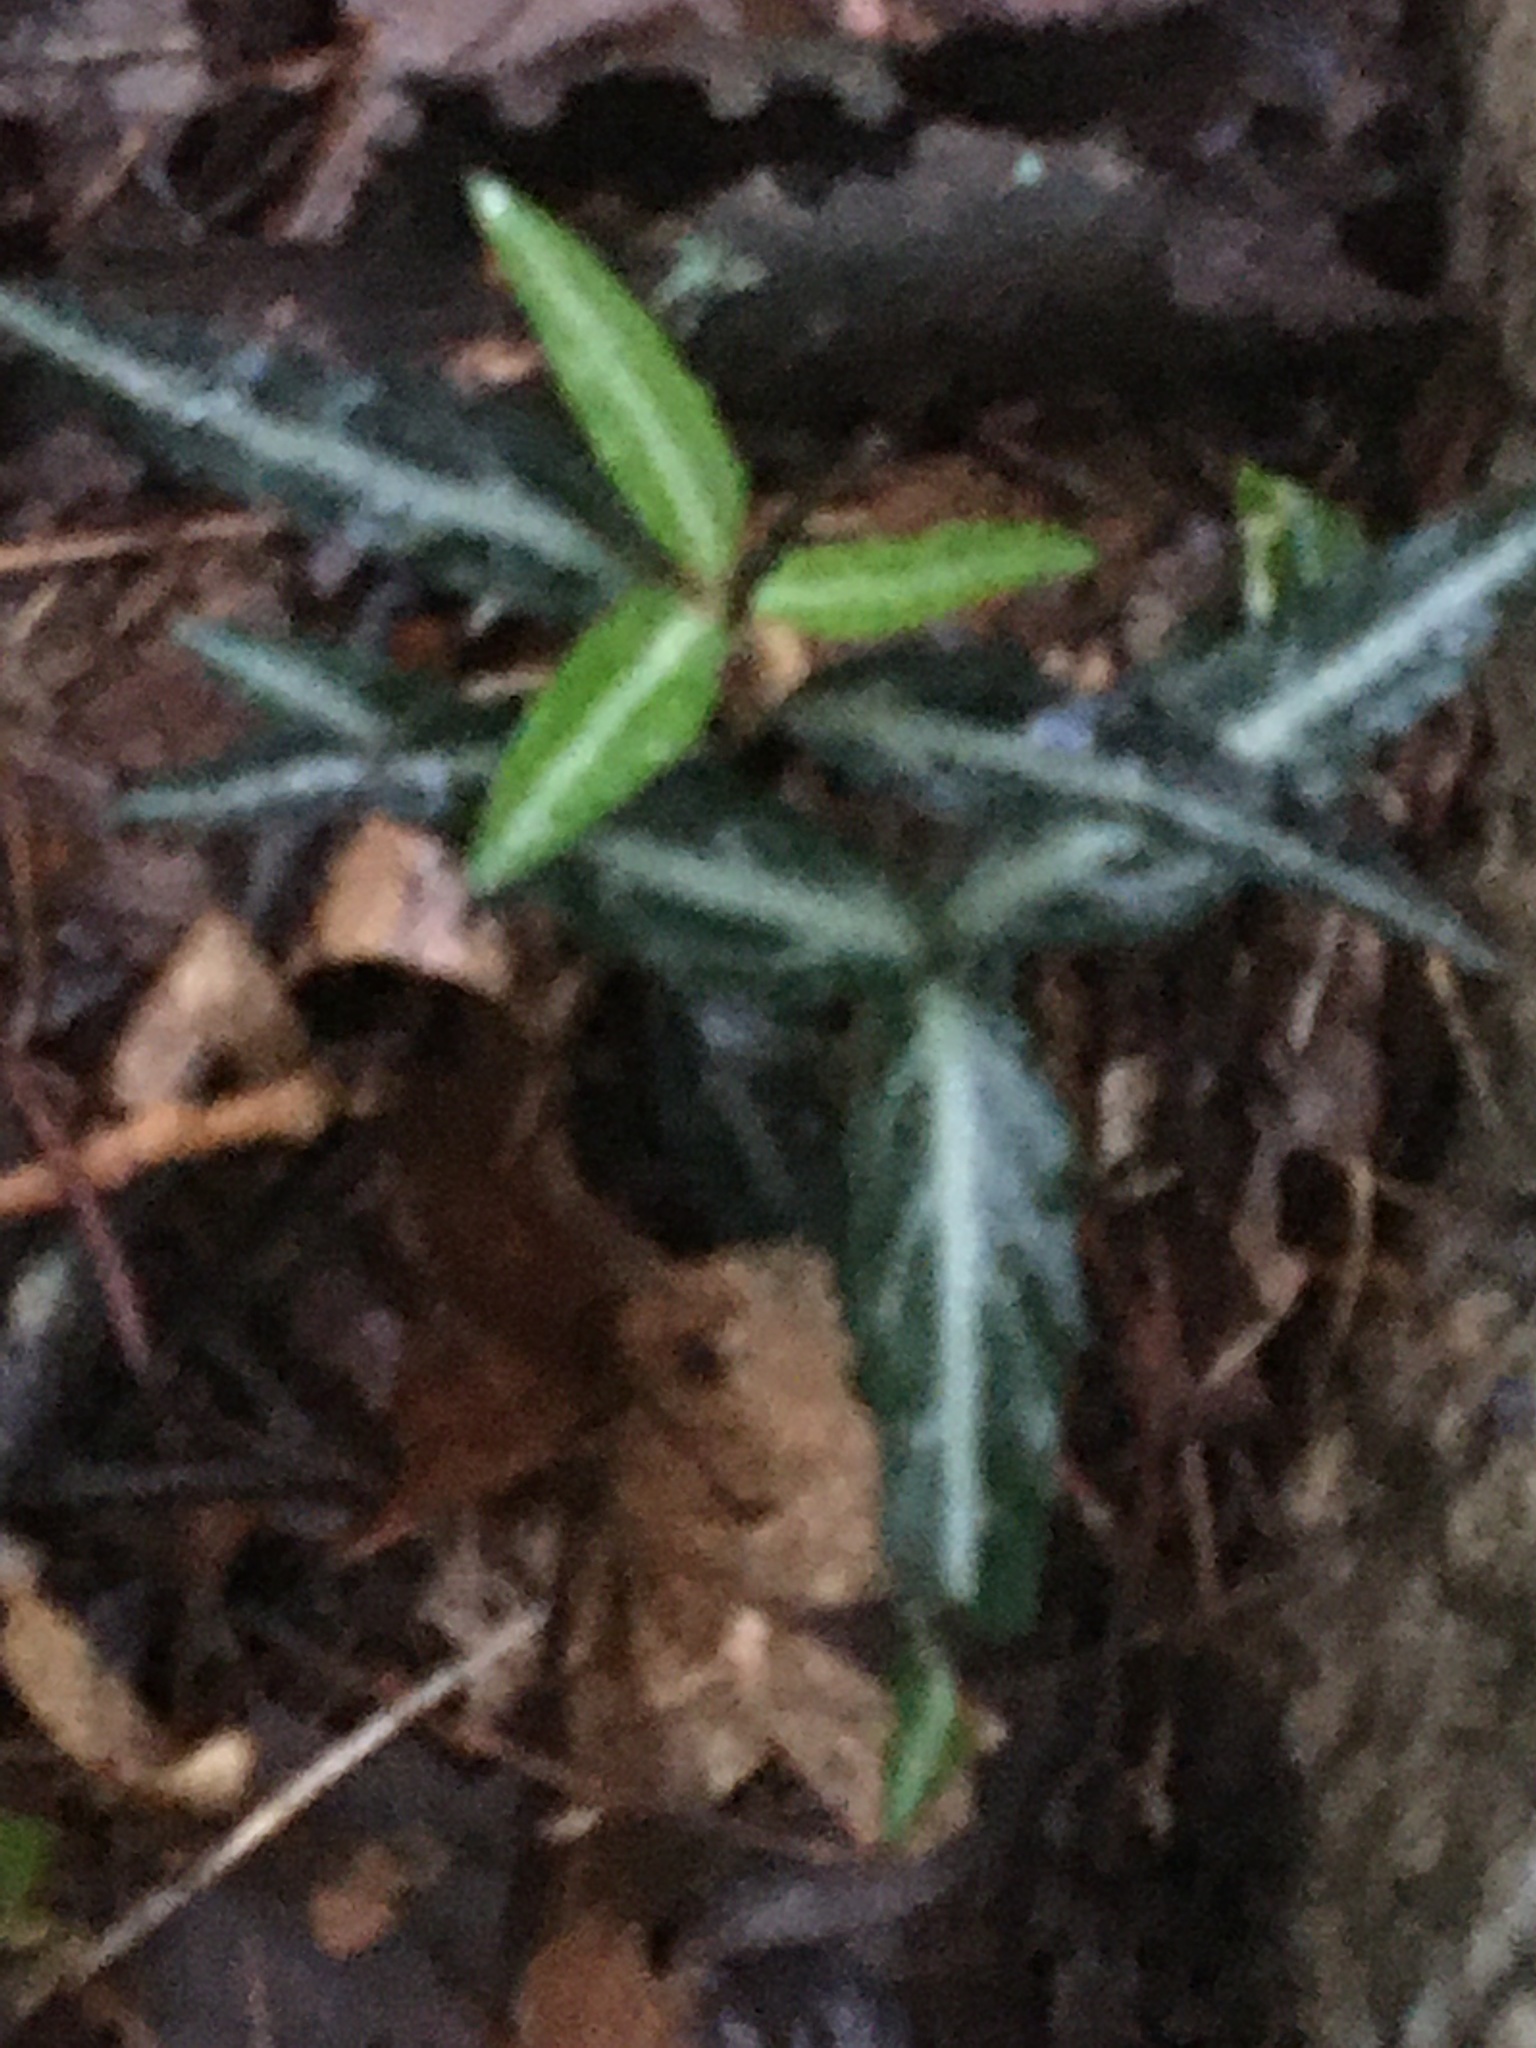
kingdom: Plantae
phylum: Tracheophyta
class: Magnoliopsida
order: Ericales
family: Ericaceae
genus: Chimaphila
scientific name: Chimaphila maculata
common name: Spotted pipsissewa
